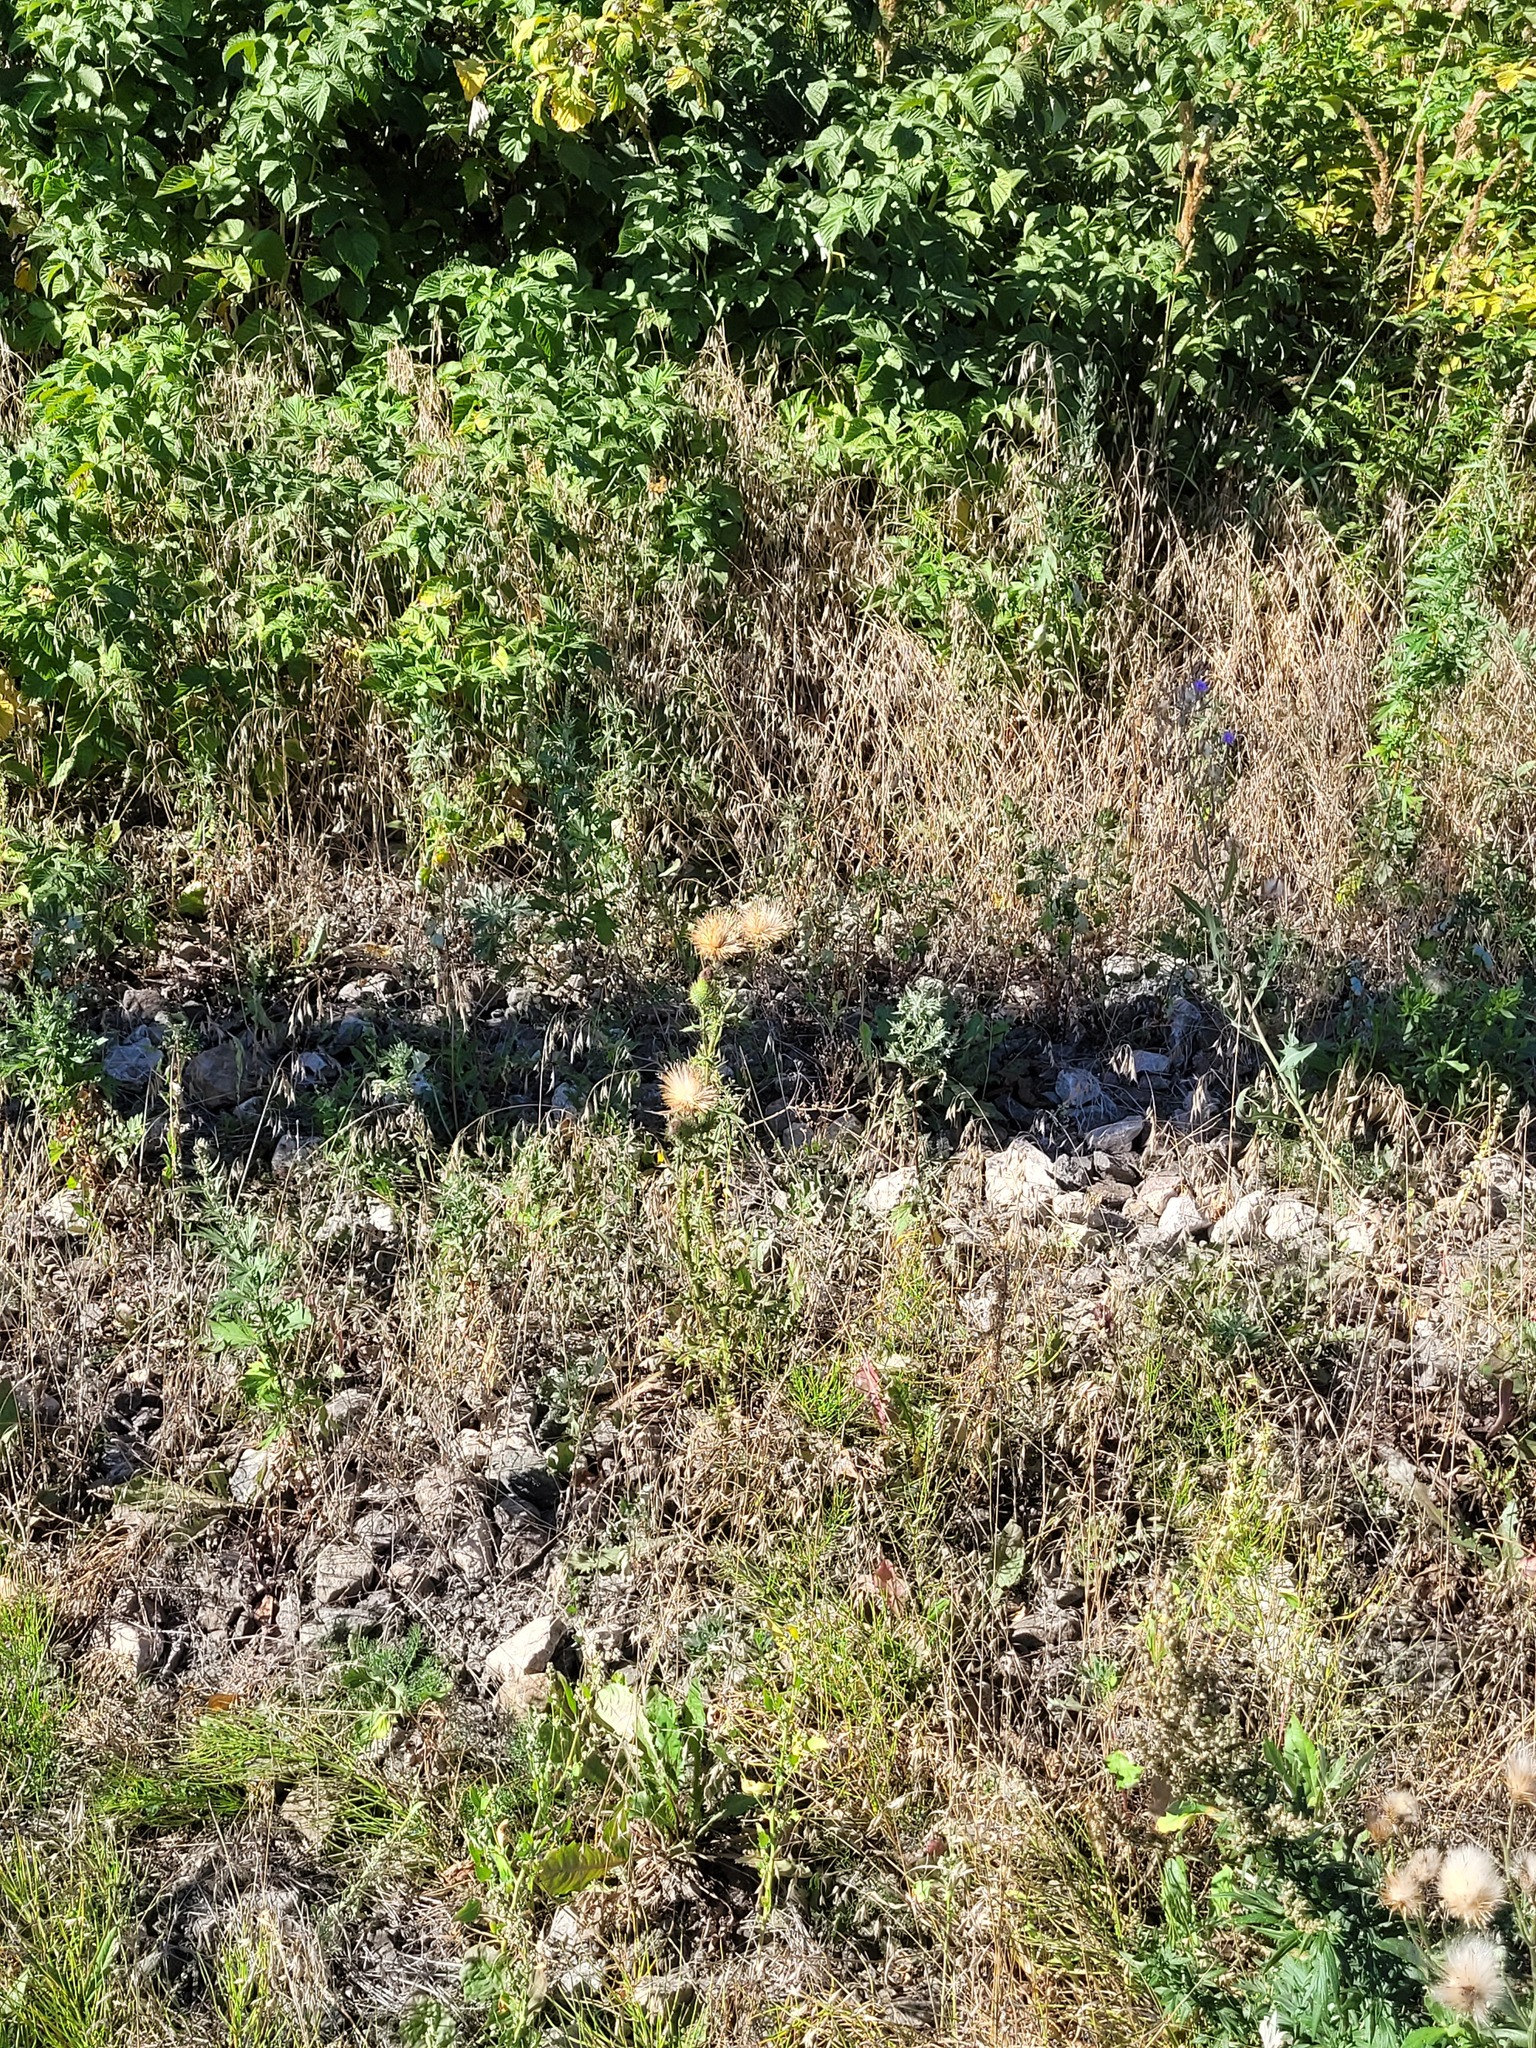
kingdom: Plantae
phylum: Tracheophyta
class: Magnoliopsida
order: Asterales
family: Asteraceae
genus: Cirsium
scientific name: Cirsium vulgare
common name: Bull thistle
